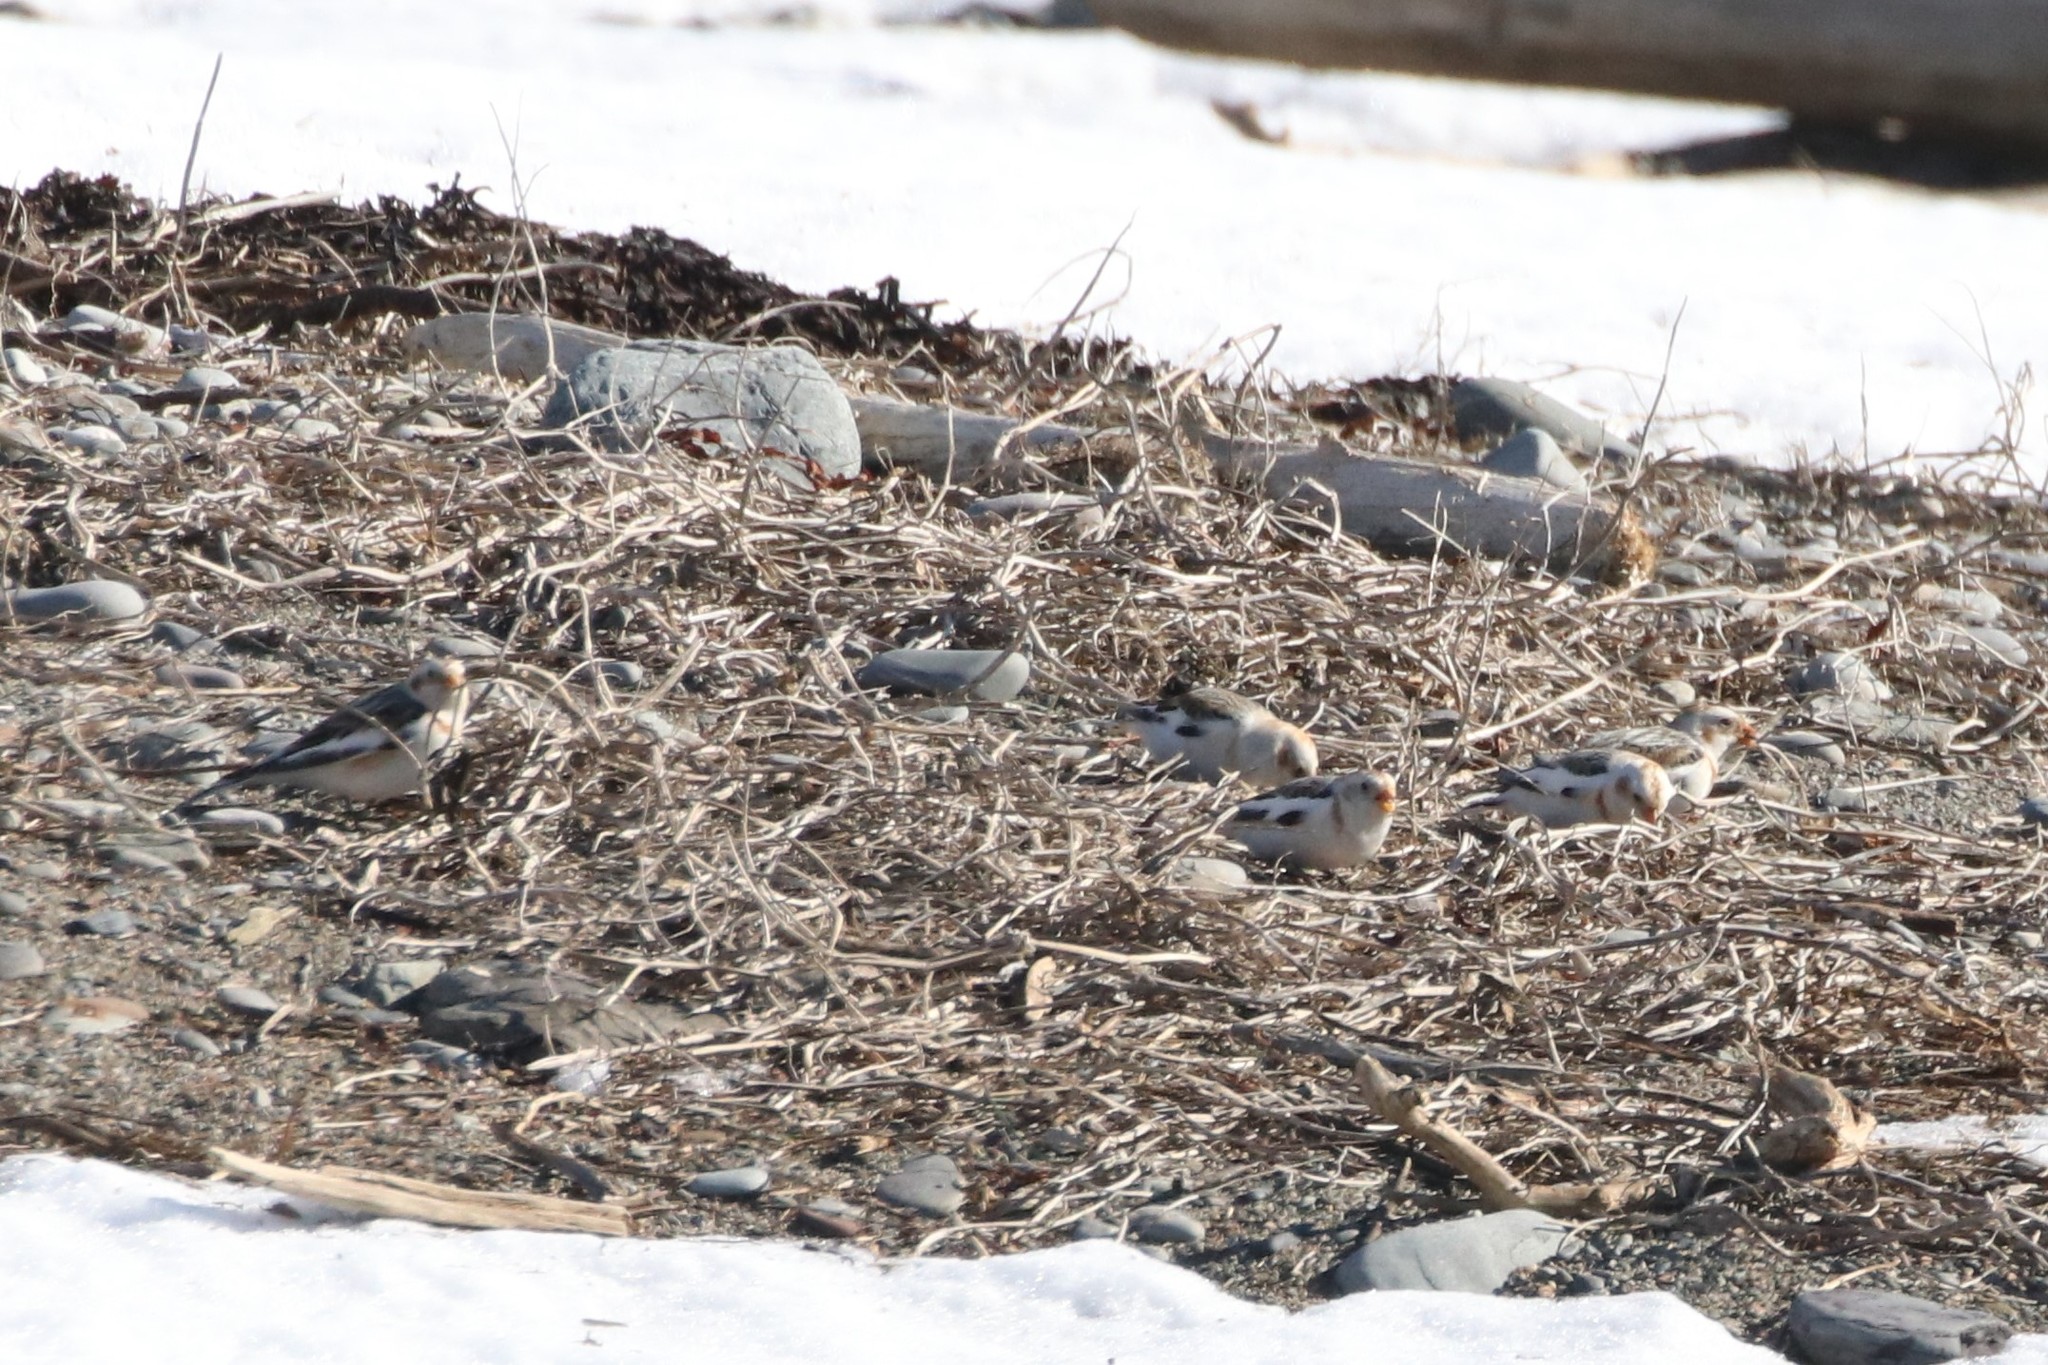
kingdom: Animalia
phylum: Chordata
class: Aves
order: Passeriformes
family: Calcariidae
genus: Plectrophenax
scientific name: Plectrophenax nivalis
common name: Snow bunting
